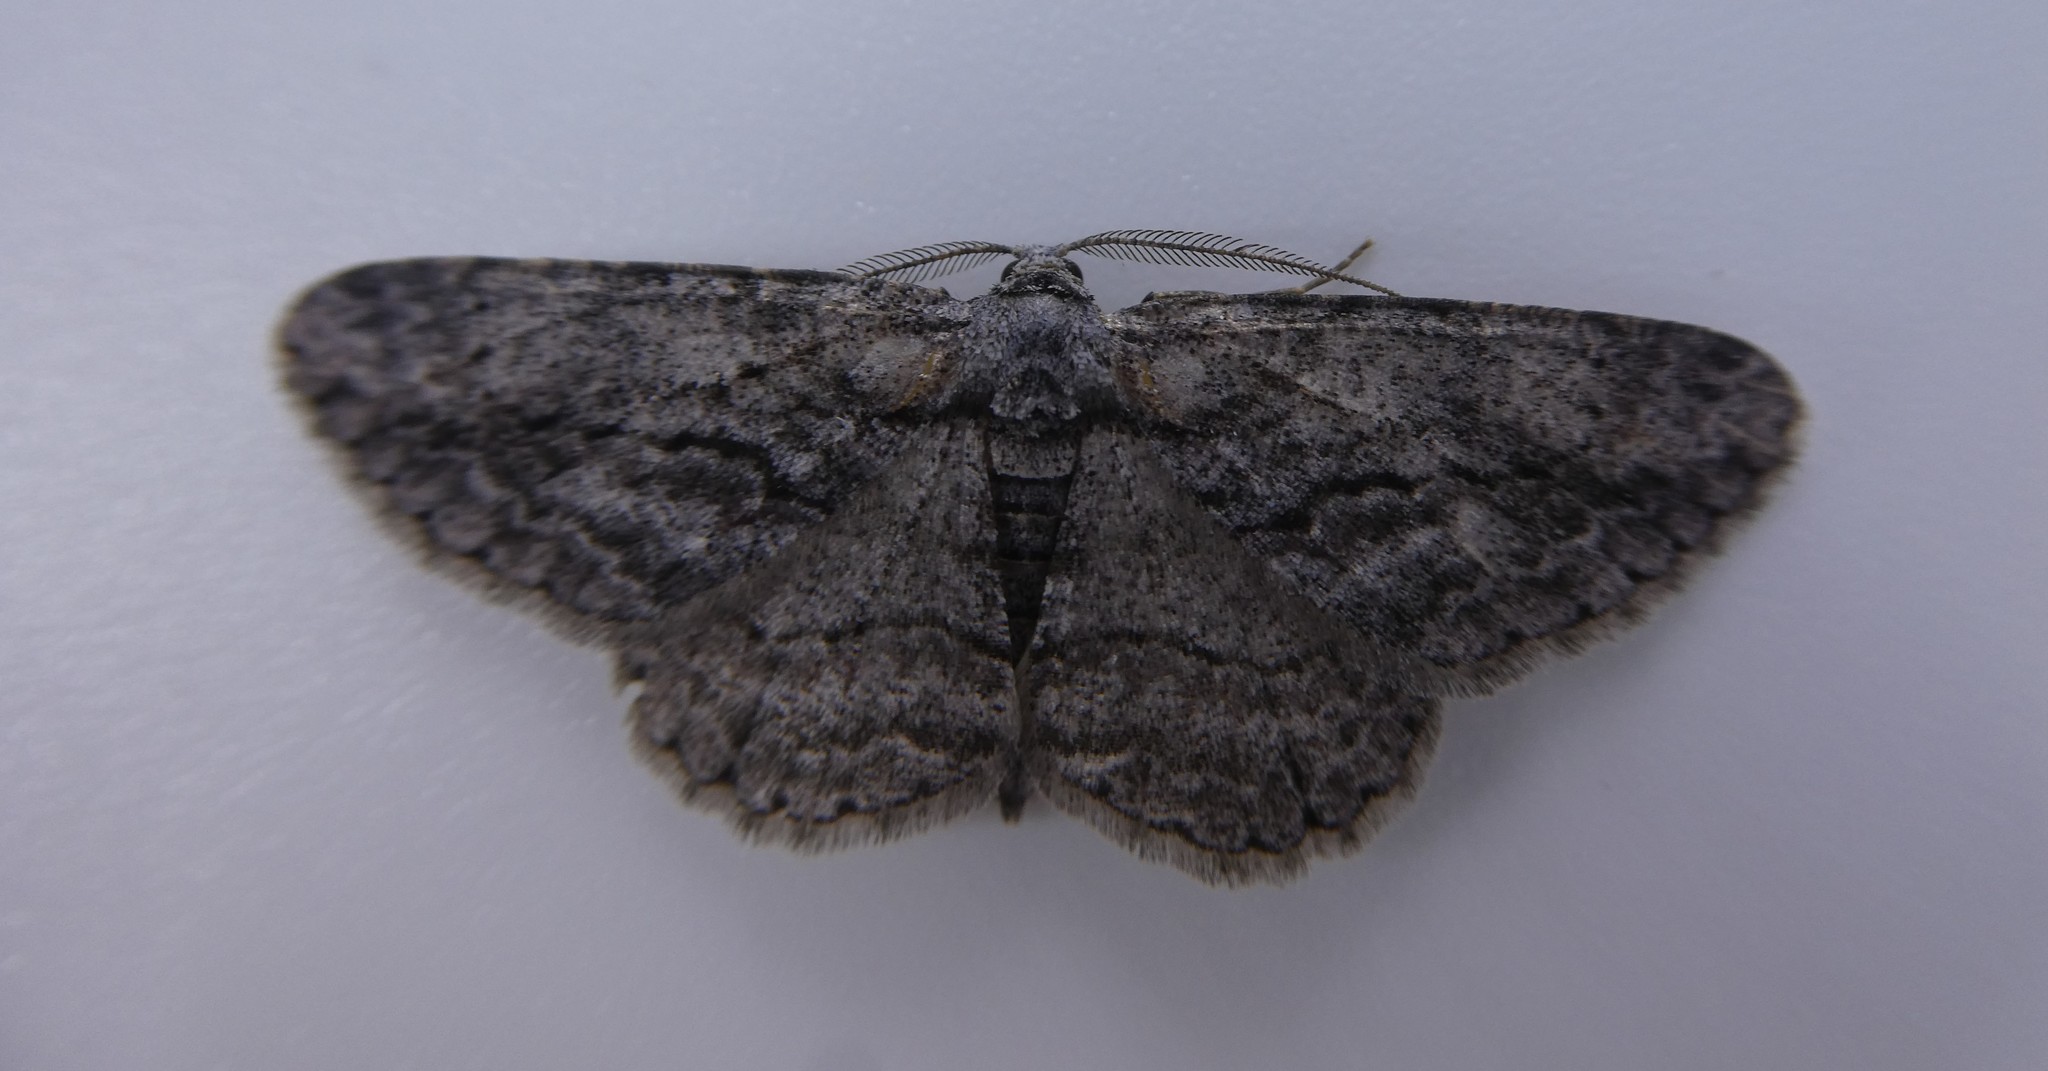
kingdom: Animalia
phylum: Arthropoda
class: Insecta
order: Lepidoptera
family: Geometridae
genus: Anavitrinella
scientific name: Anavitrinella pampinaria
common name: Common gray
